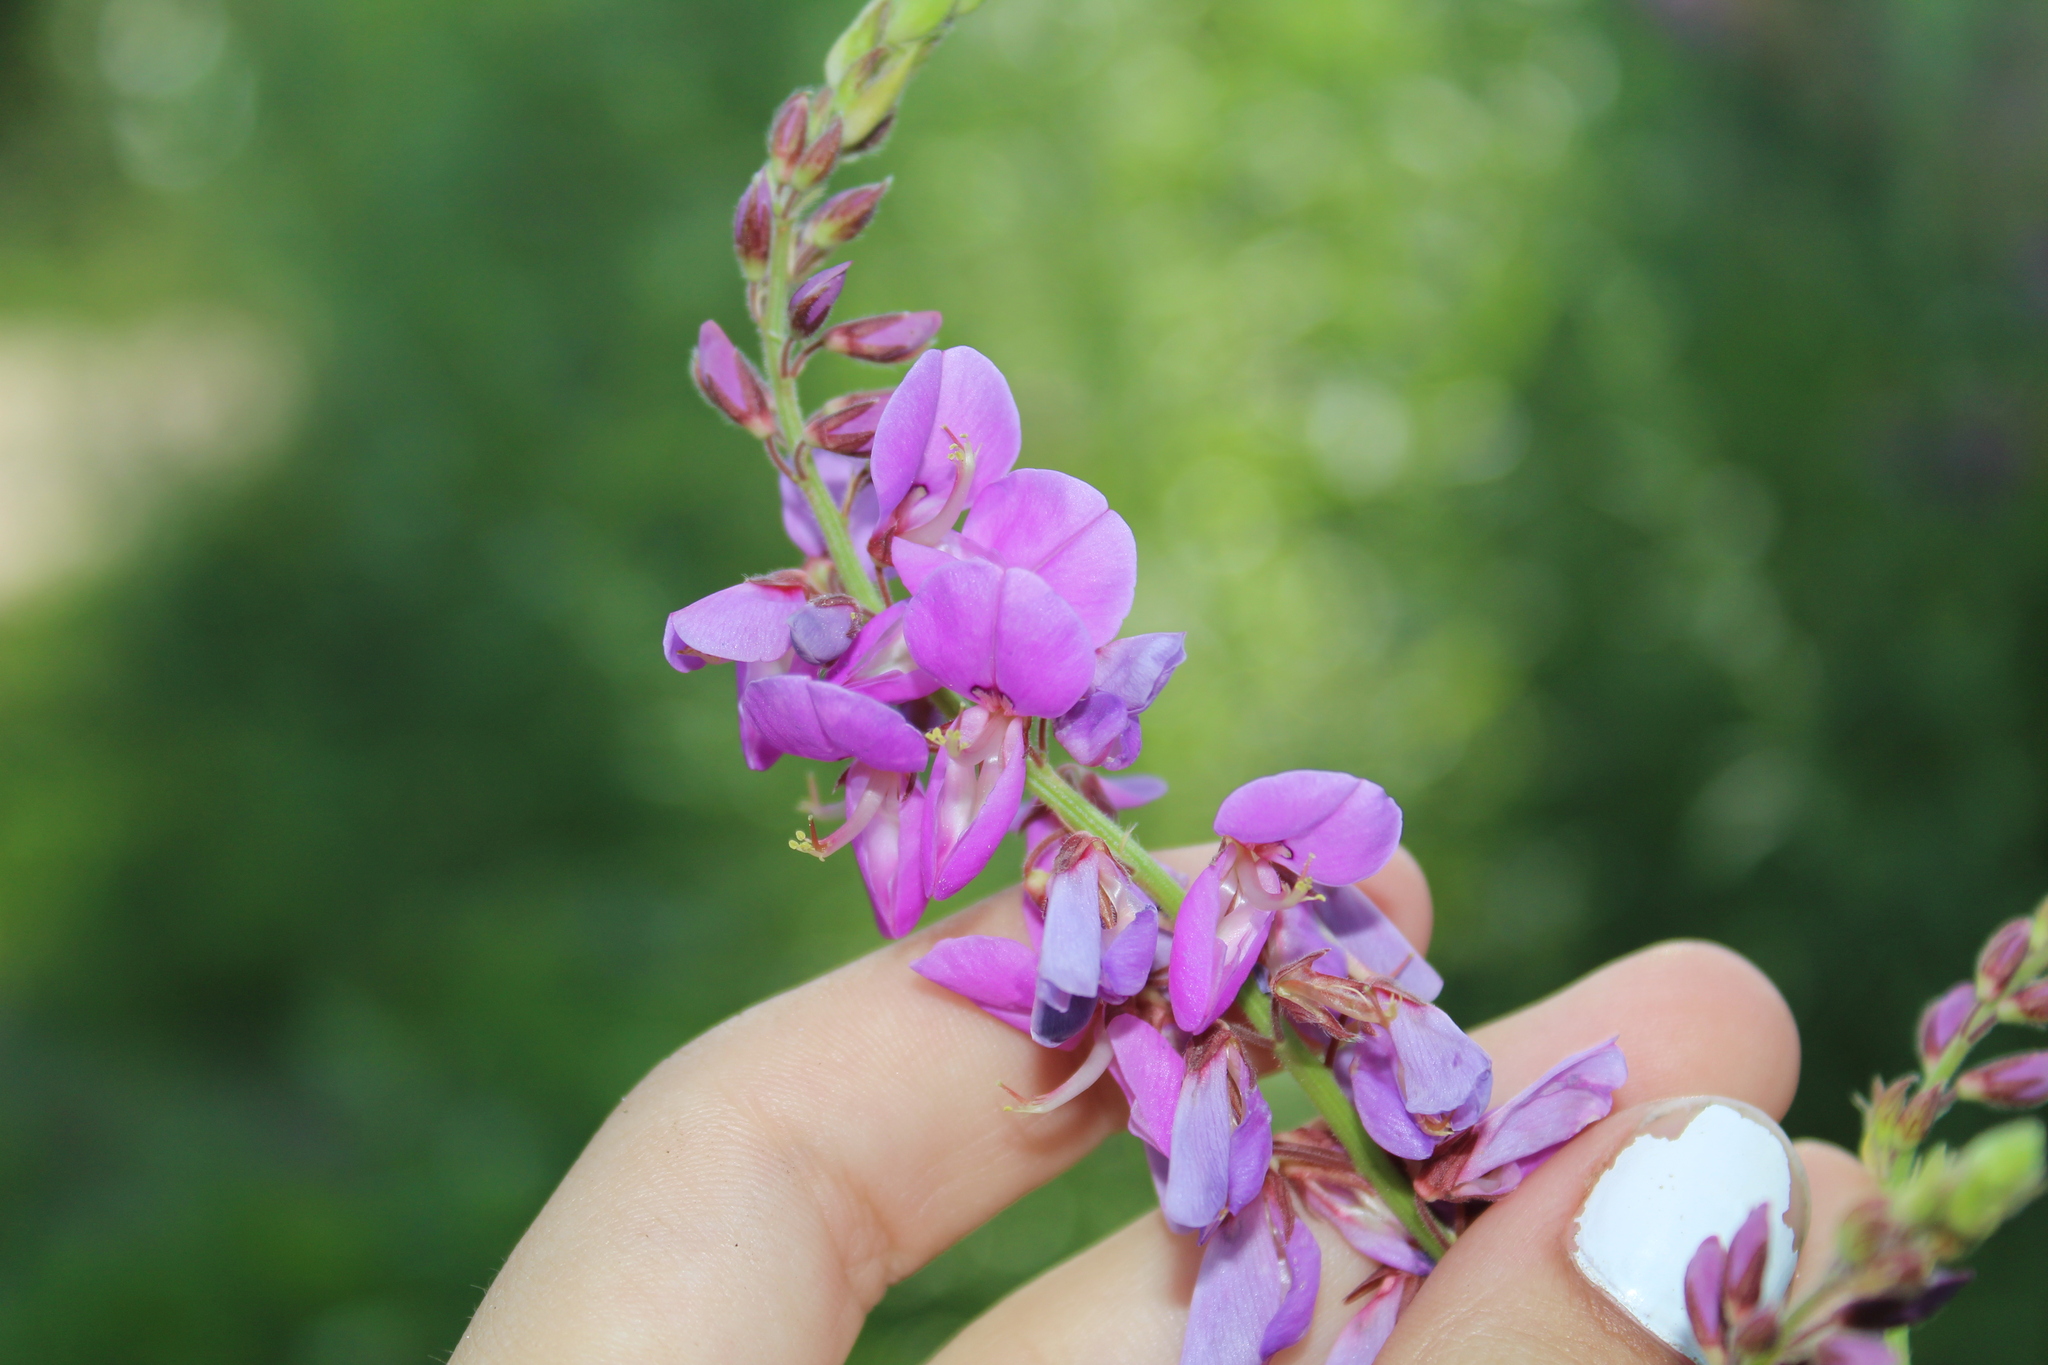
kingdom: Plantae
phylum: Tracheophyta
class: Magnoliopsida
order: Fabales
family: Fabaceae
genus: Desmodium
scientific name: Desmodium canadense
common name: Canada tick-trefoil
